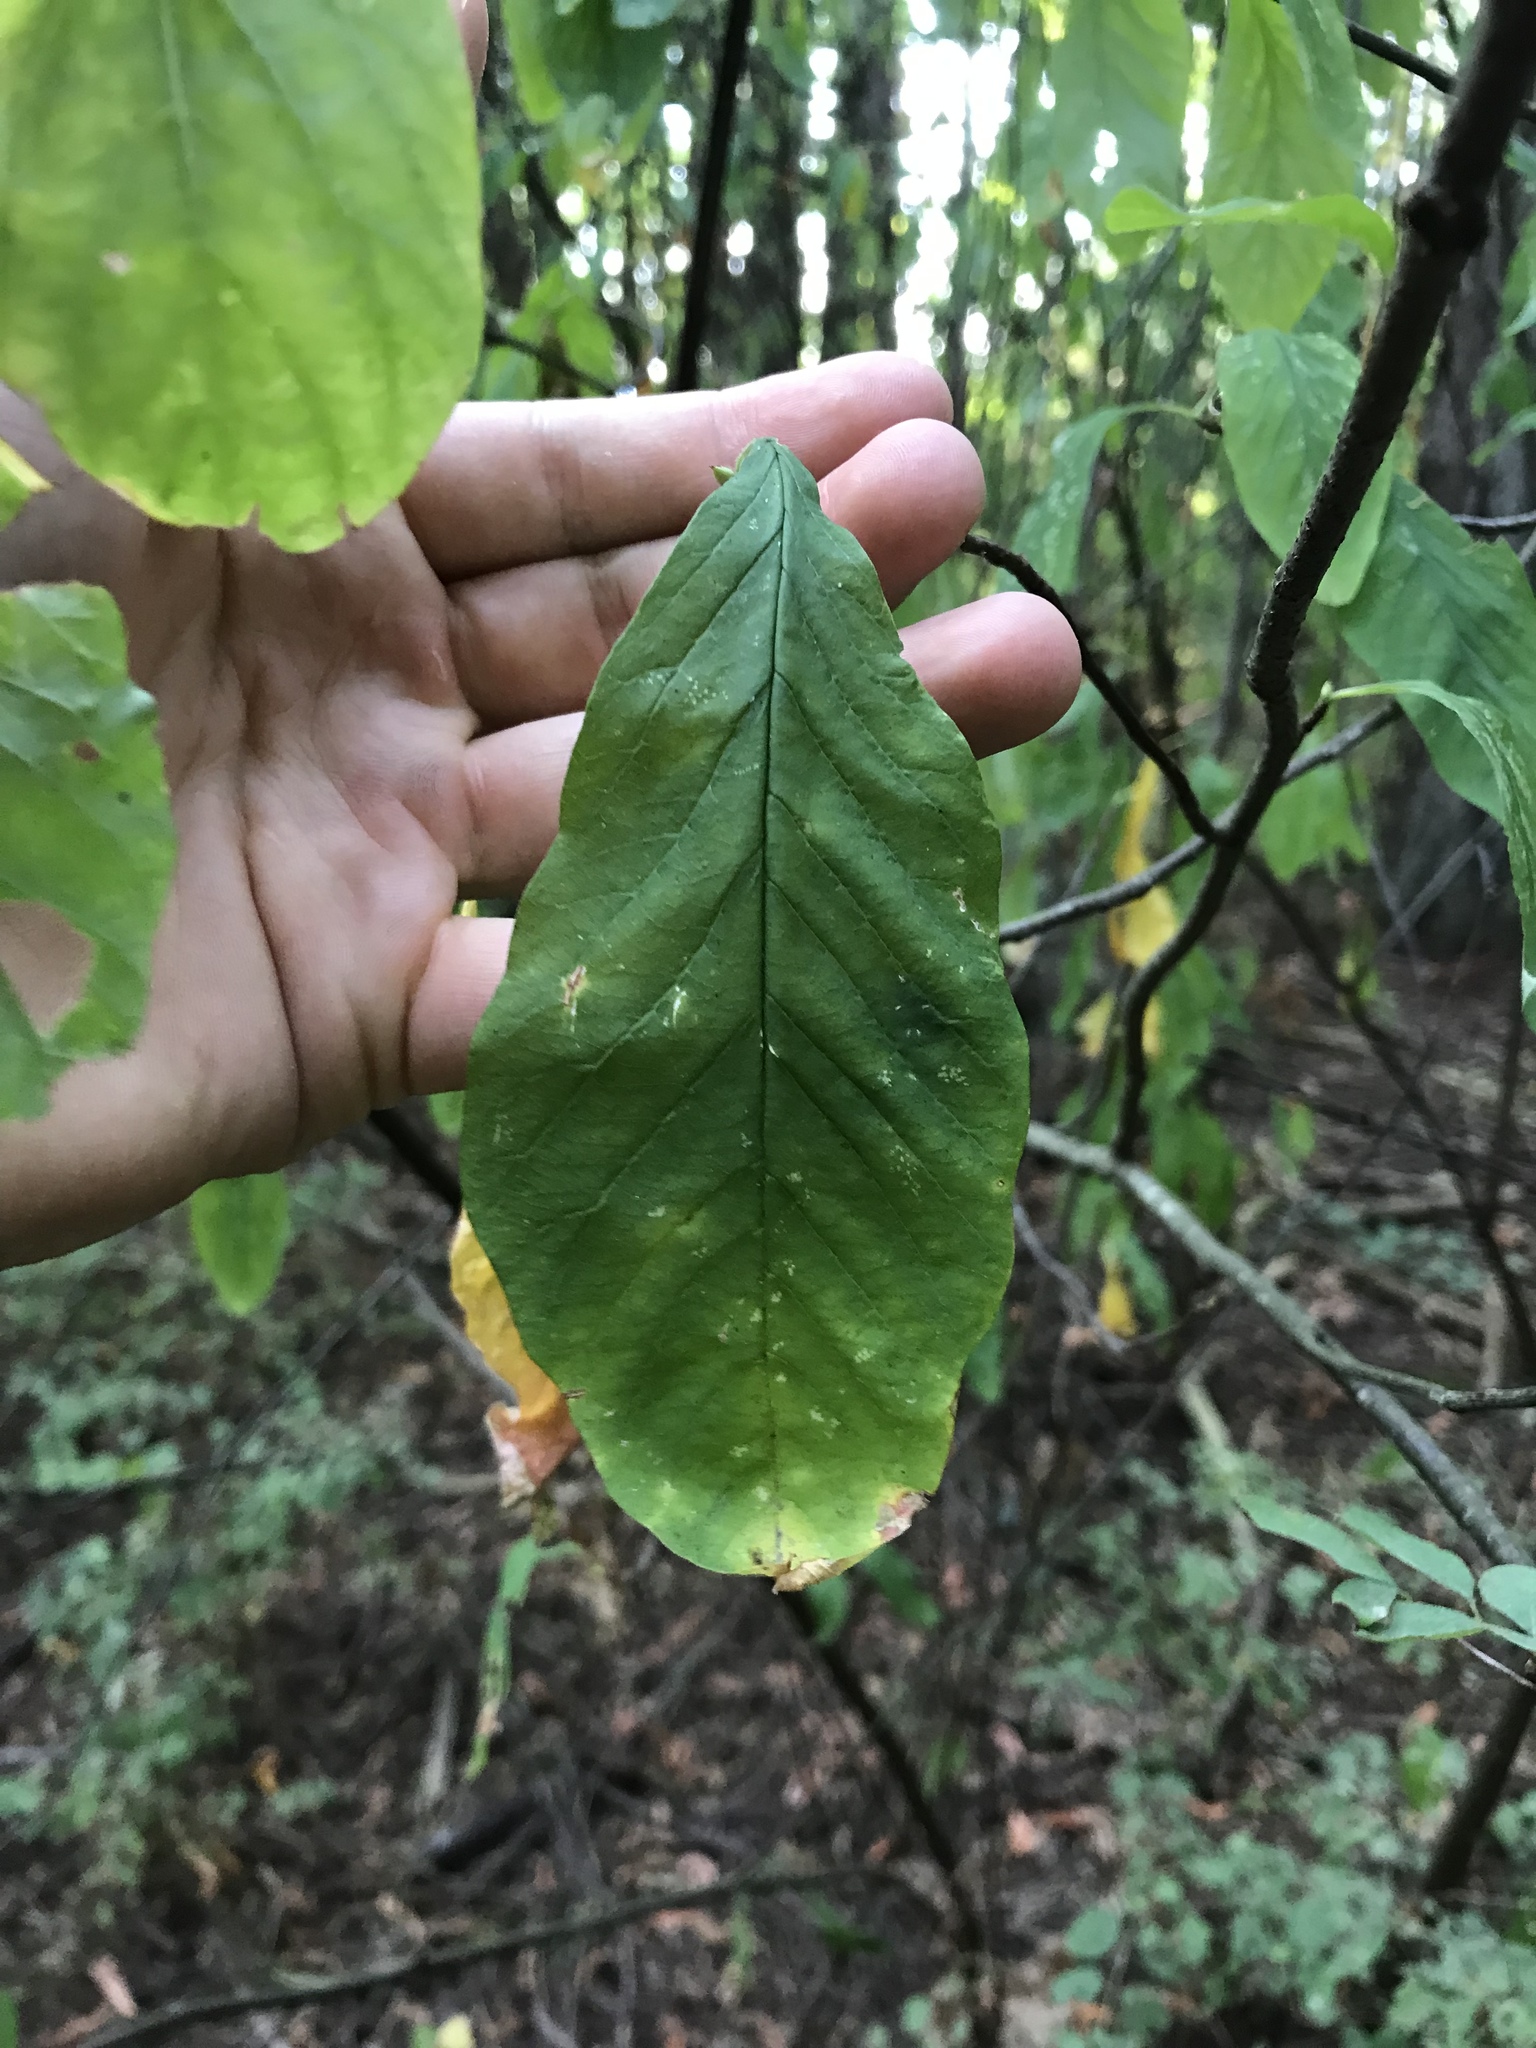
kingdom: Plantae
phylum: Tracheophyta
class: Magnoliopsida
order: Rosales
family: Rosaceae
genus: Oemleria
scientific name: Oemleria cerasiformis
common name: Osoberry
